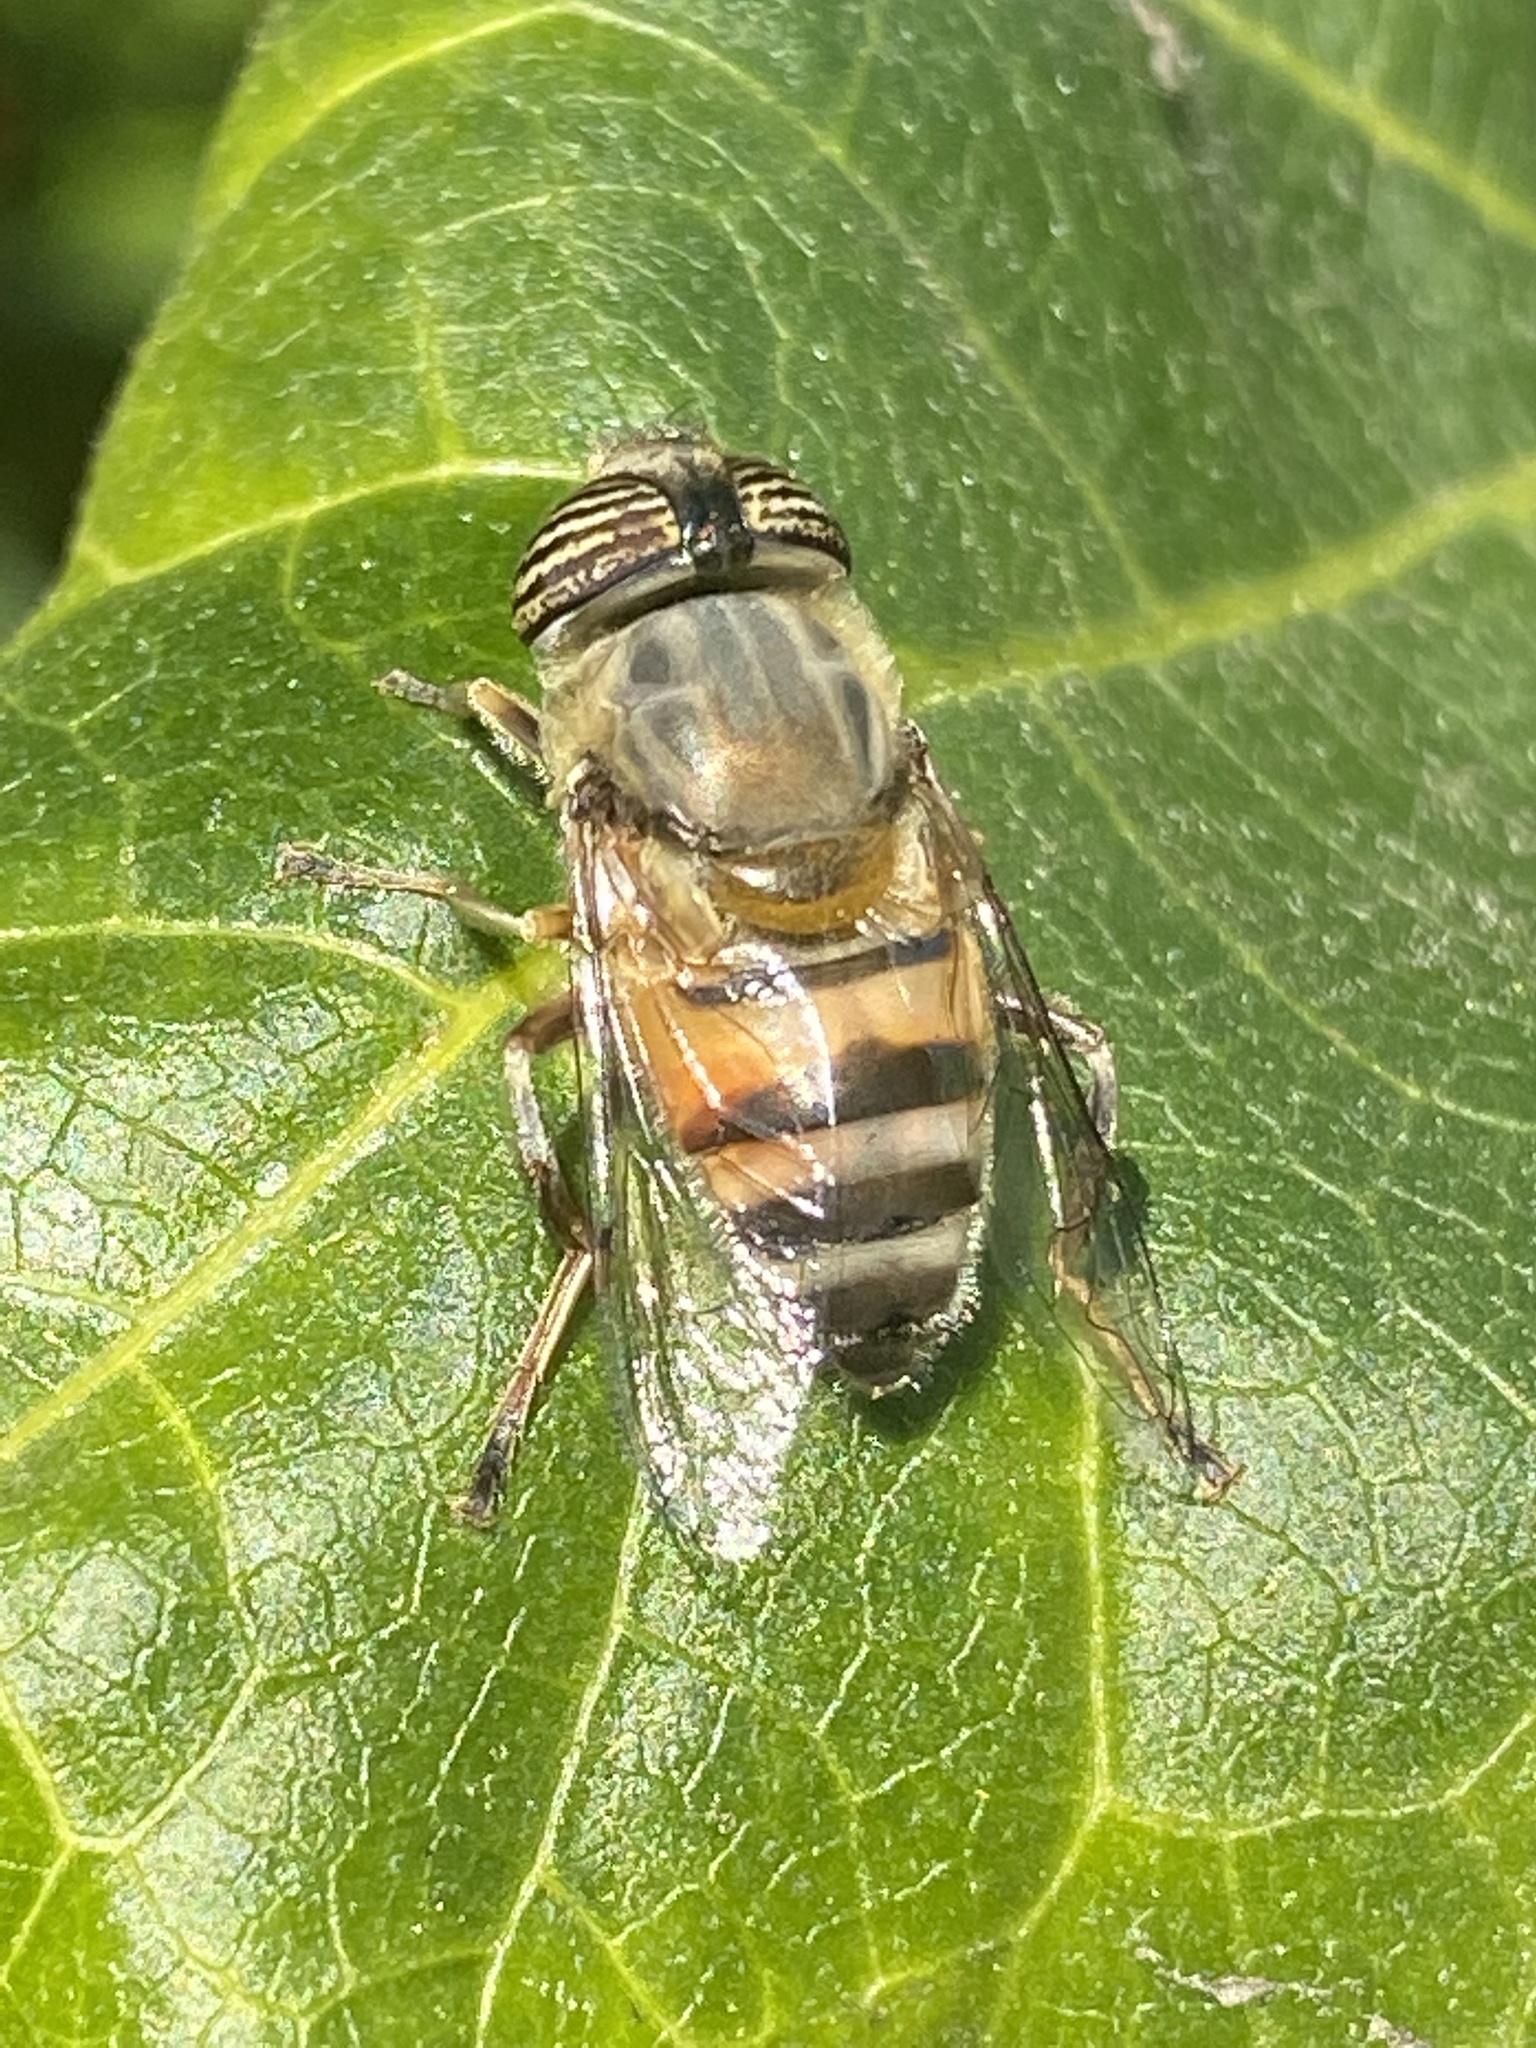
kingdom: Animalia
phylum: Arthropoda
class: Insecta
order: Diptera
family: Syrphidae
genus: Eristalinus
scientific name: Eristalinus taeniops
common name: Syrphid fly
